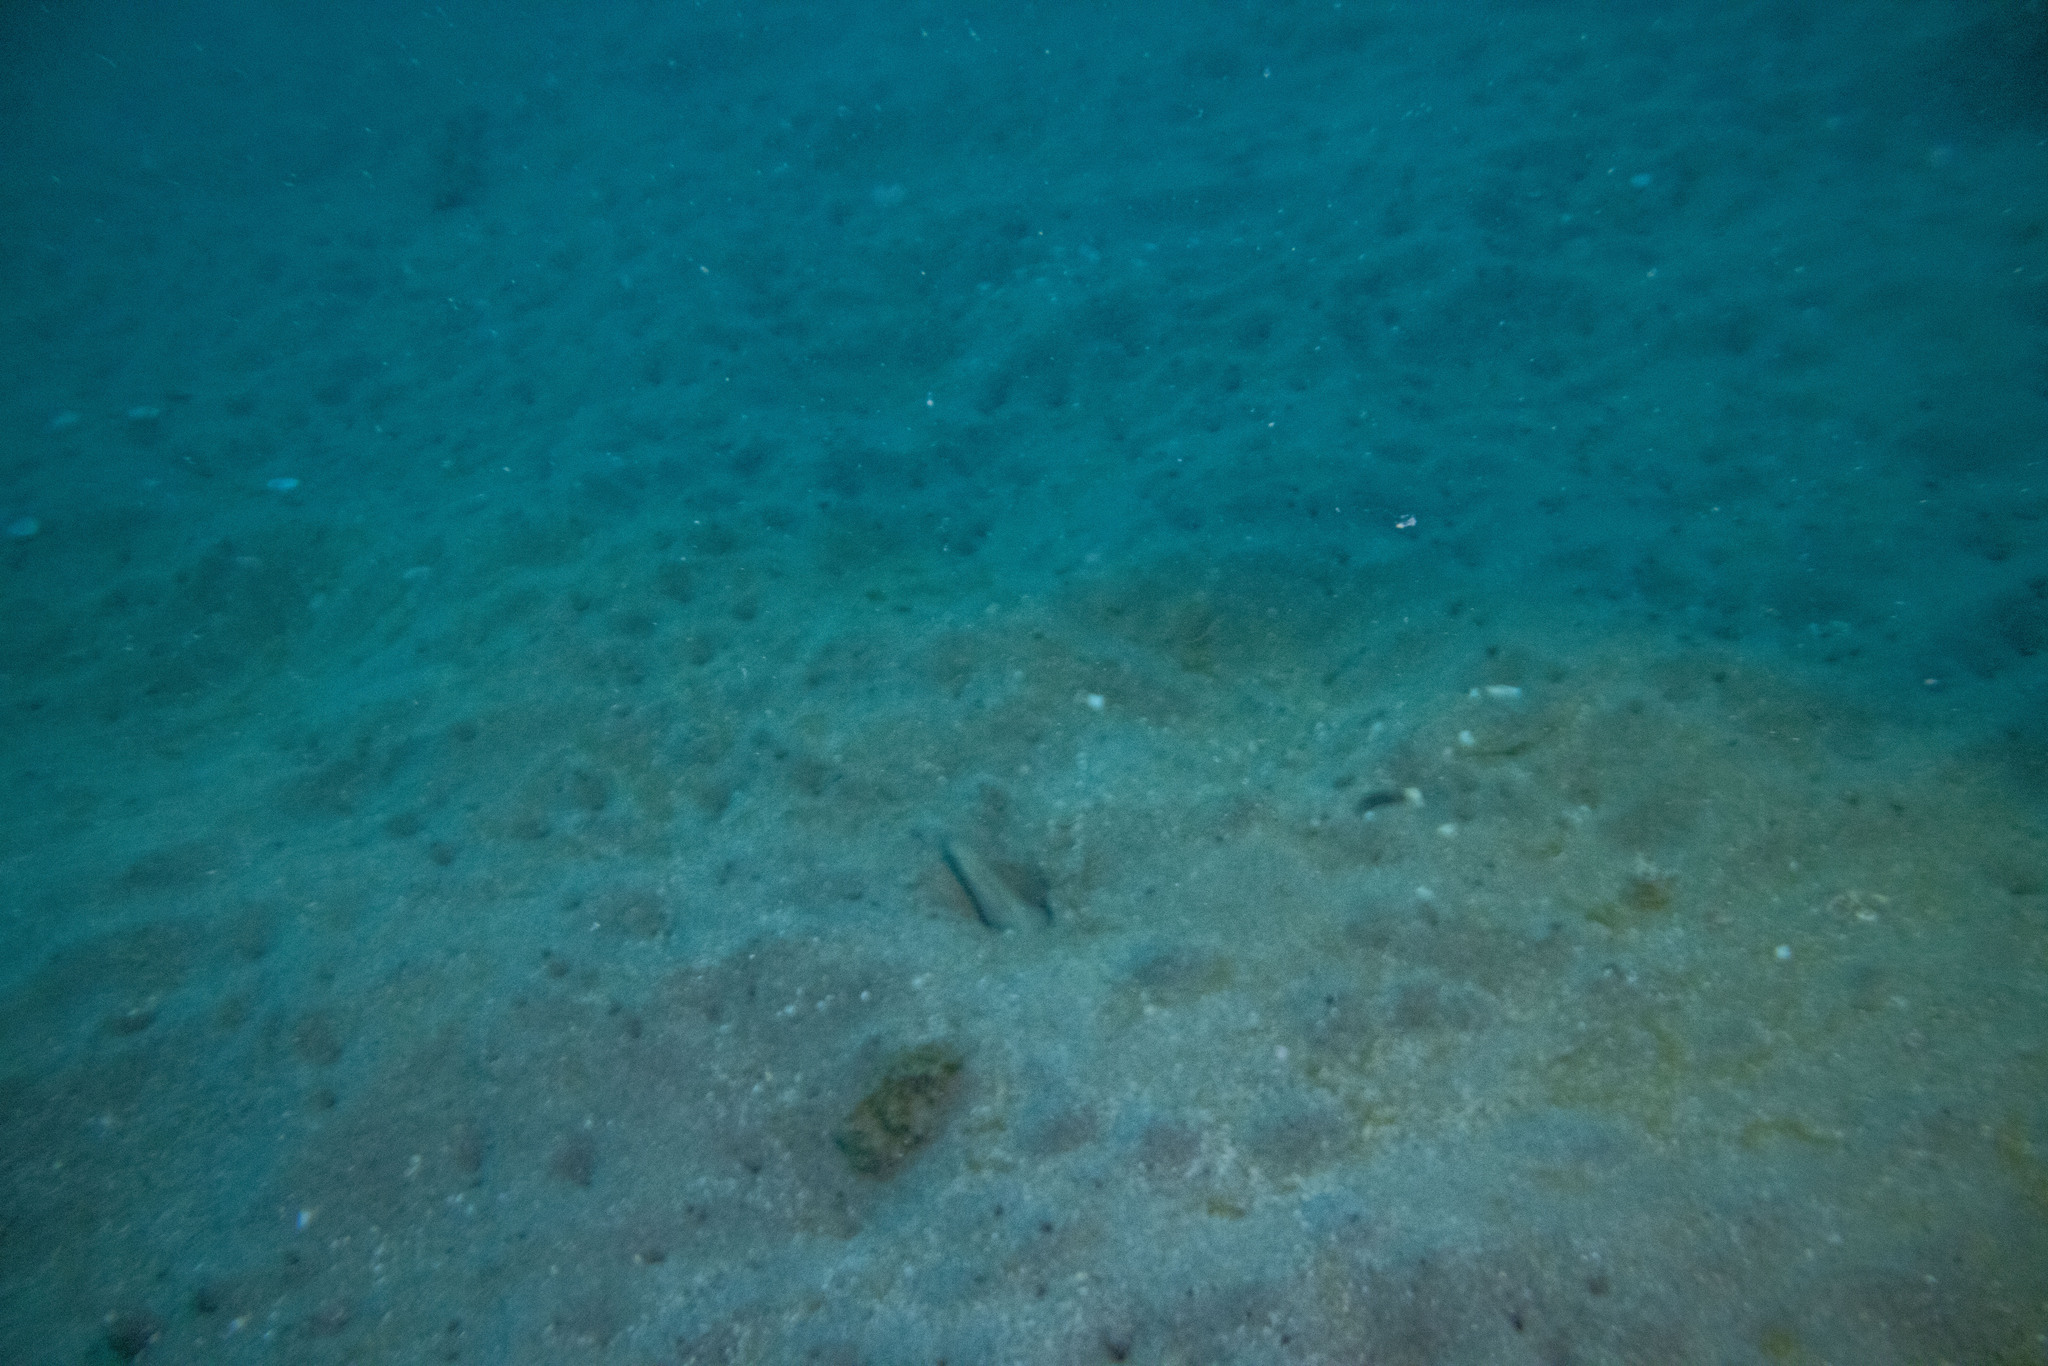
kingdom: Animalia
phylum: Chordata
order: Anguilliformes
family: Ophichthidae
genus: Ophisurus
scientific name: Ophisurus serpens
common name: Serpent eel
